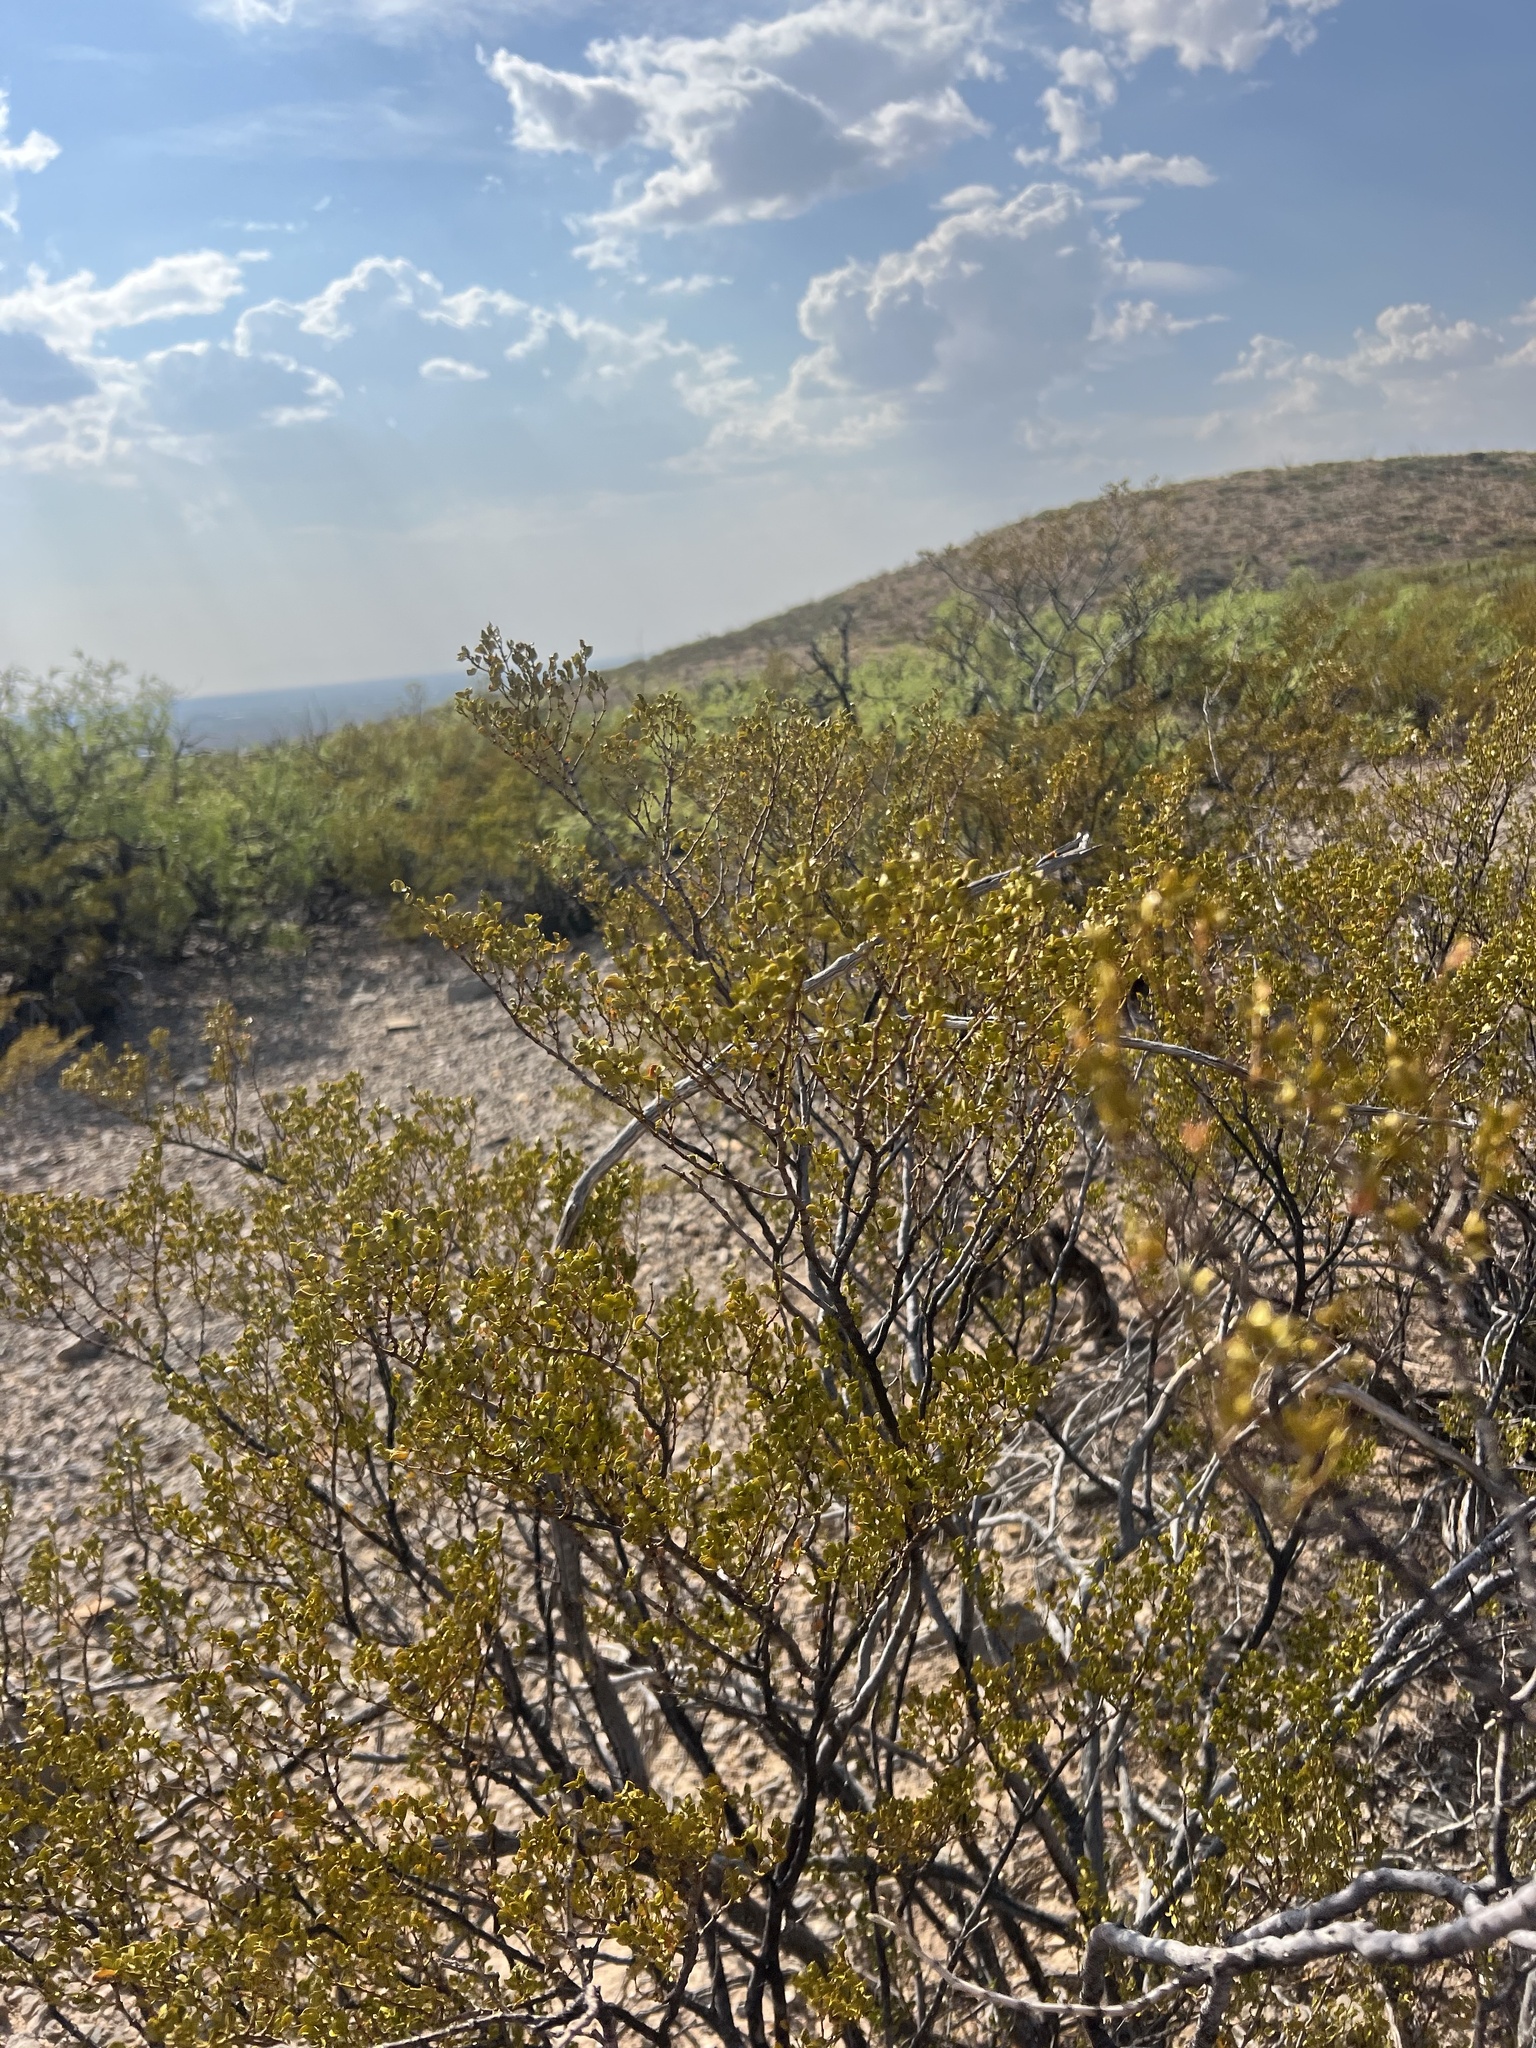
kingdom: Plantae
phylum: Tracheophyta
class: Magnoliopsida
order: Zygophyllales
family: Zygophyllaceae
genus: Larrea
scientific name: Larrea tridentata
